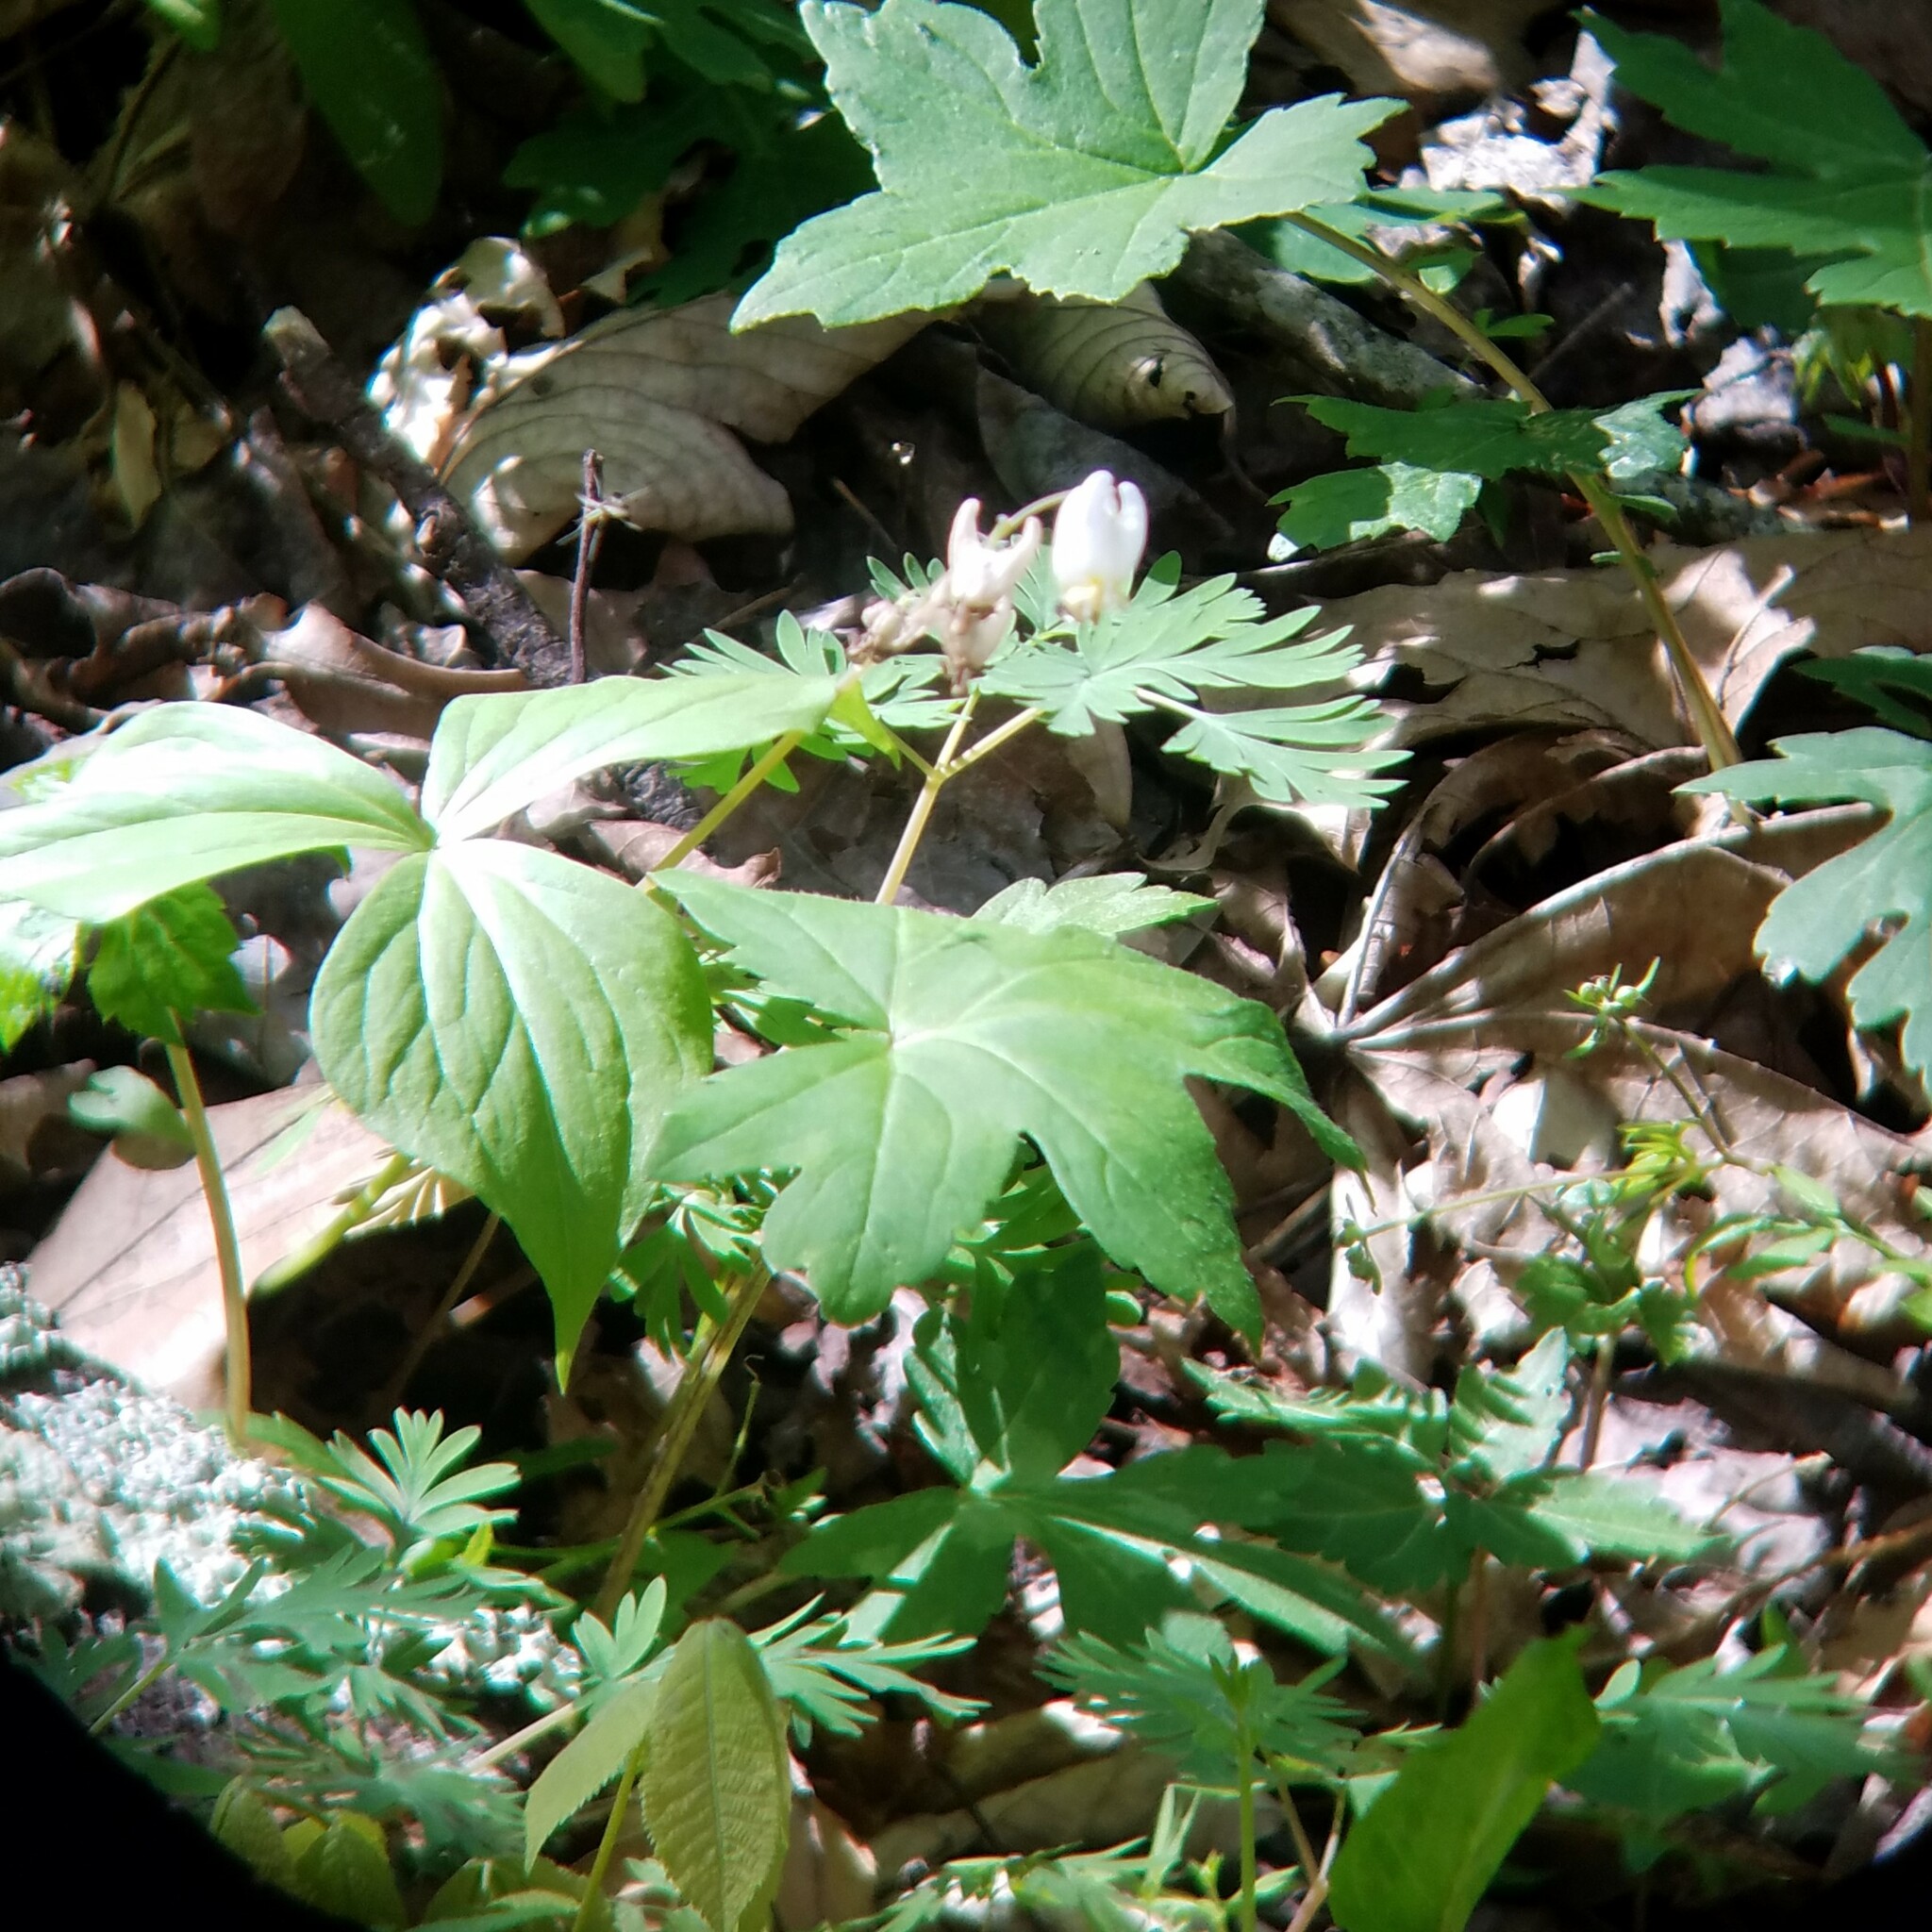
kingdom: Plantae
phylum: Tracheophyta
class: Magnoliopsida
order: Ranunculales
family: Papaveraceae
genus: Dicentra
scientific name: Dicentra cucullaria
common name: Dutchman's breeches
